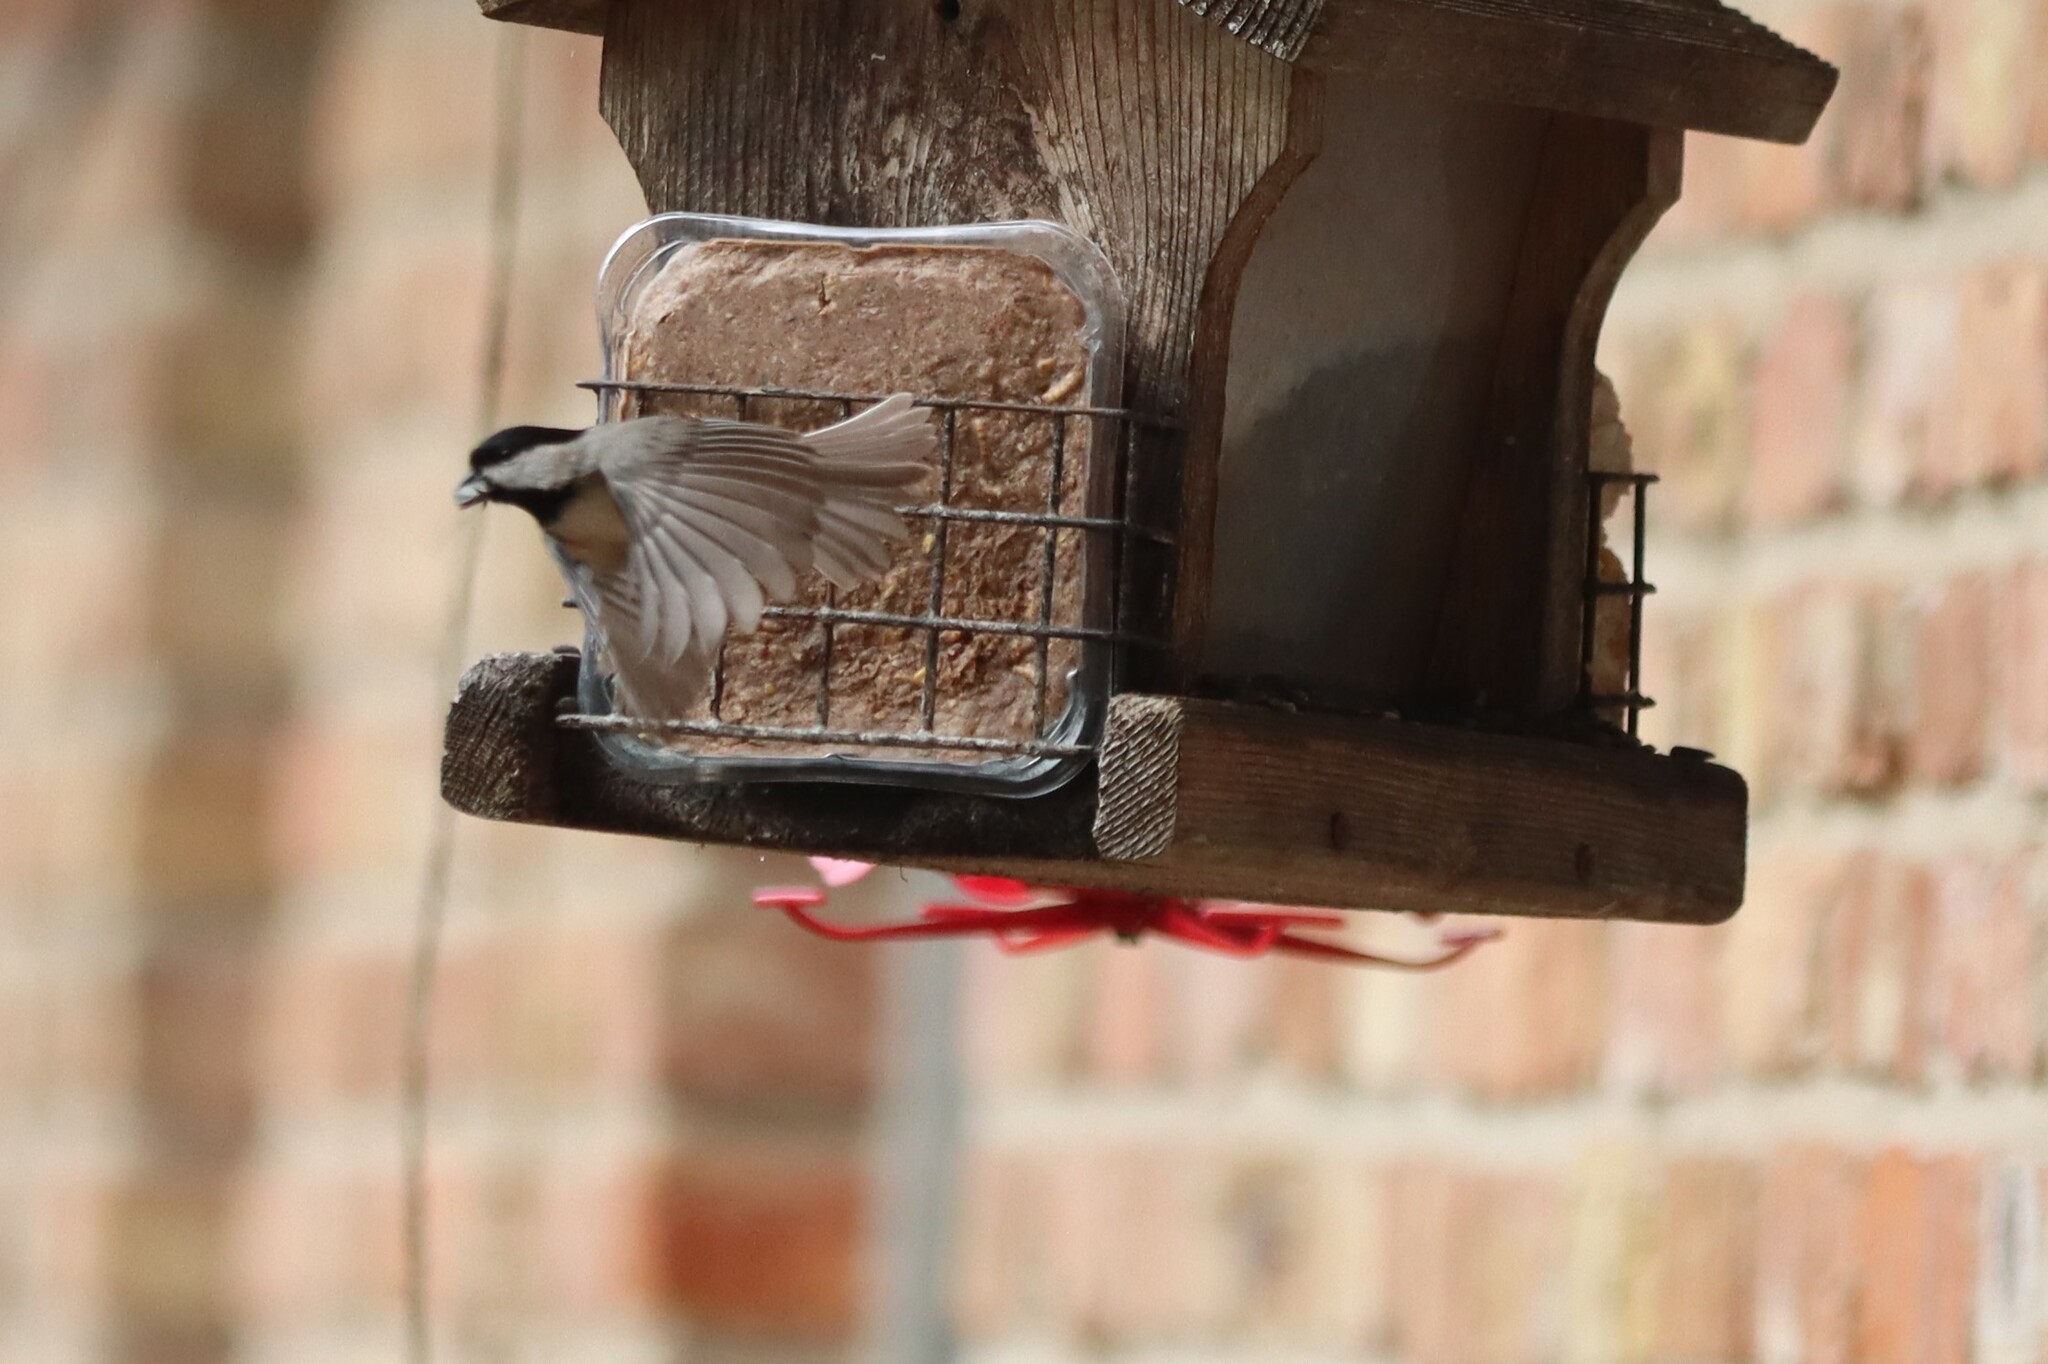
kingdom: Animalia
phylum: Chordata
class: Aves
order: Passeriformes
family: Paridae
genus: Poecile
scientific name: Poecile carolinensis
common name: Carolina chickadee
